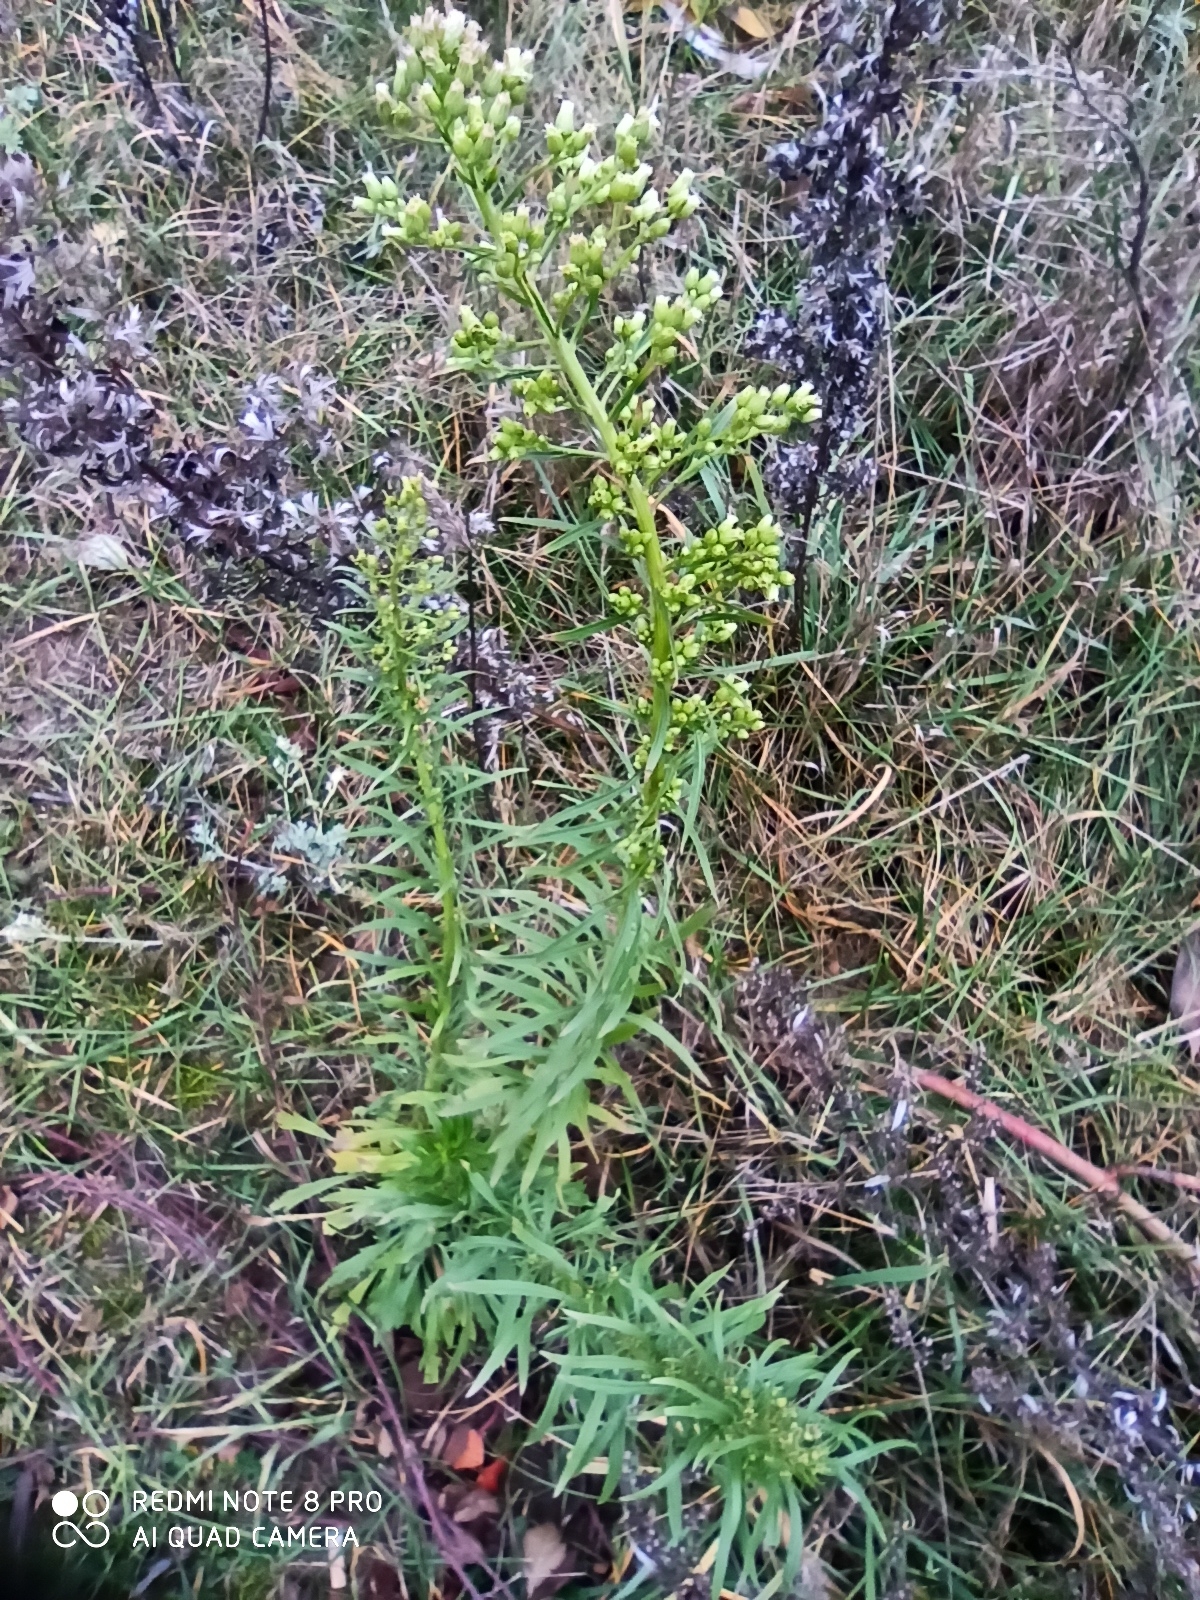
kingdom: Plantae
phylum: Tracheophyta
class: Magnoliopsida
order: Asterales
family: Asteraceae
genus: Erigeron
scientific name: Erigeron canadensis
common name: Canadian fleabane
